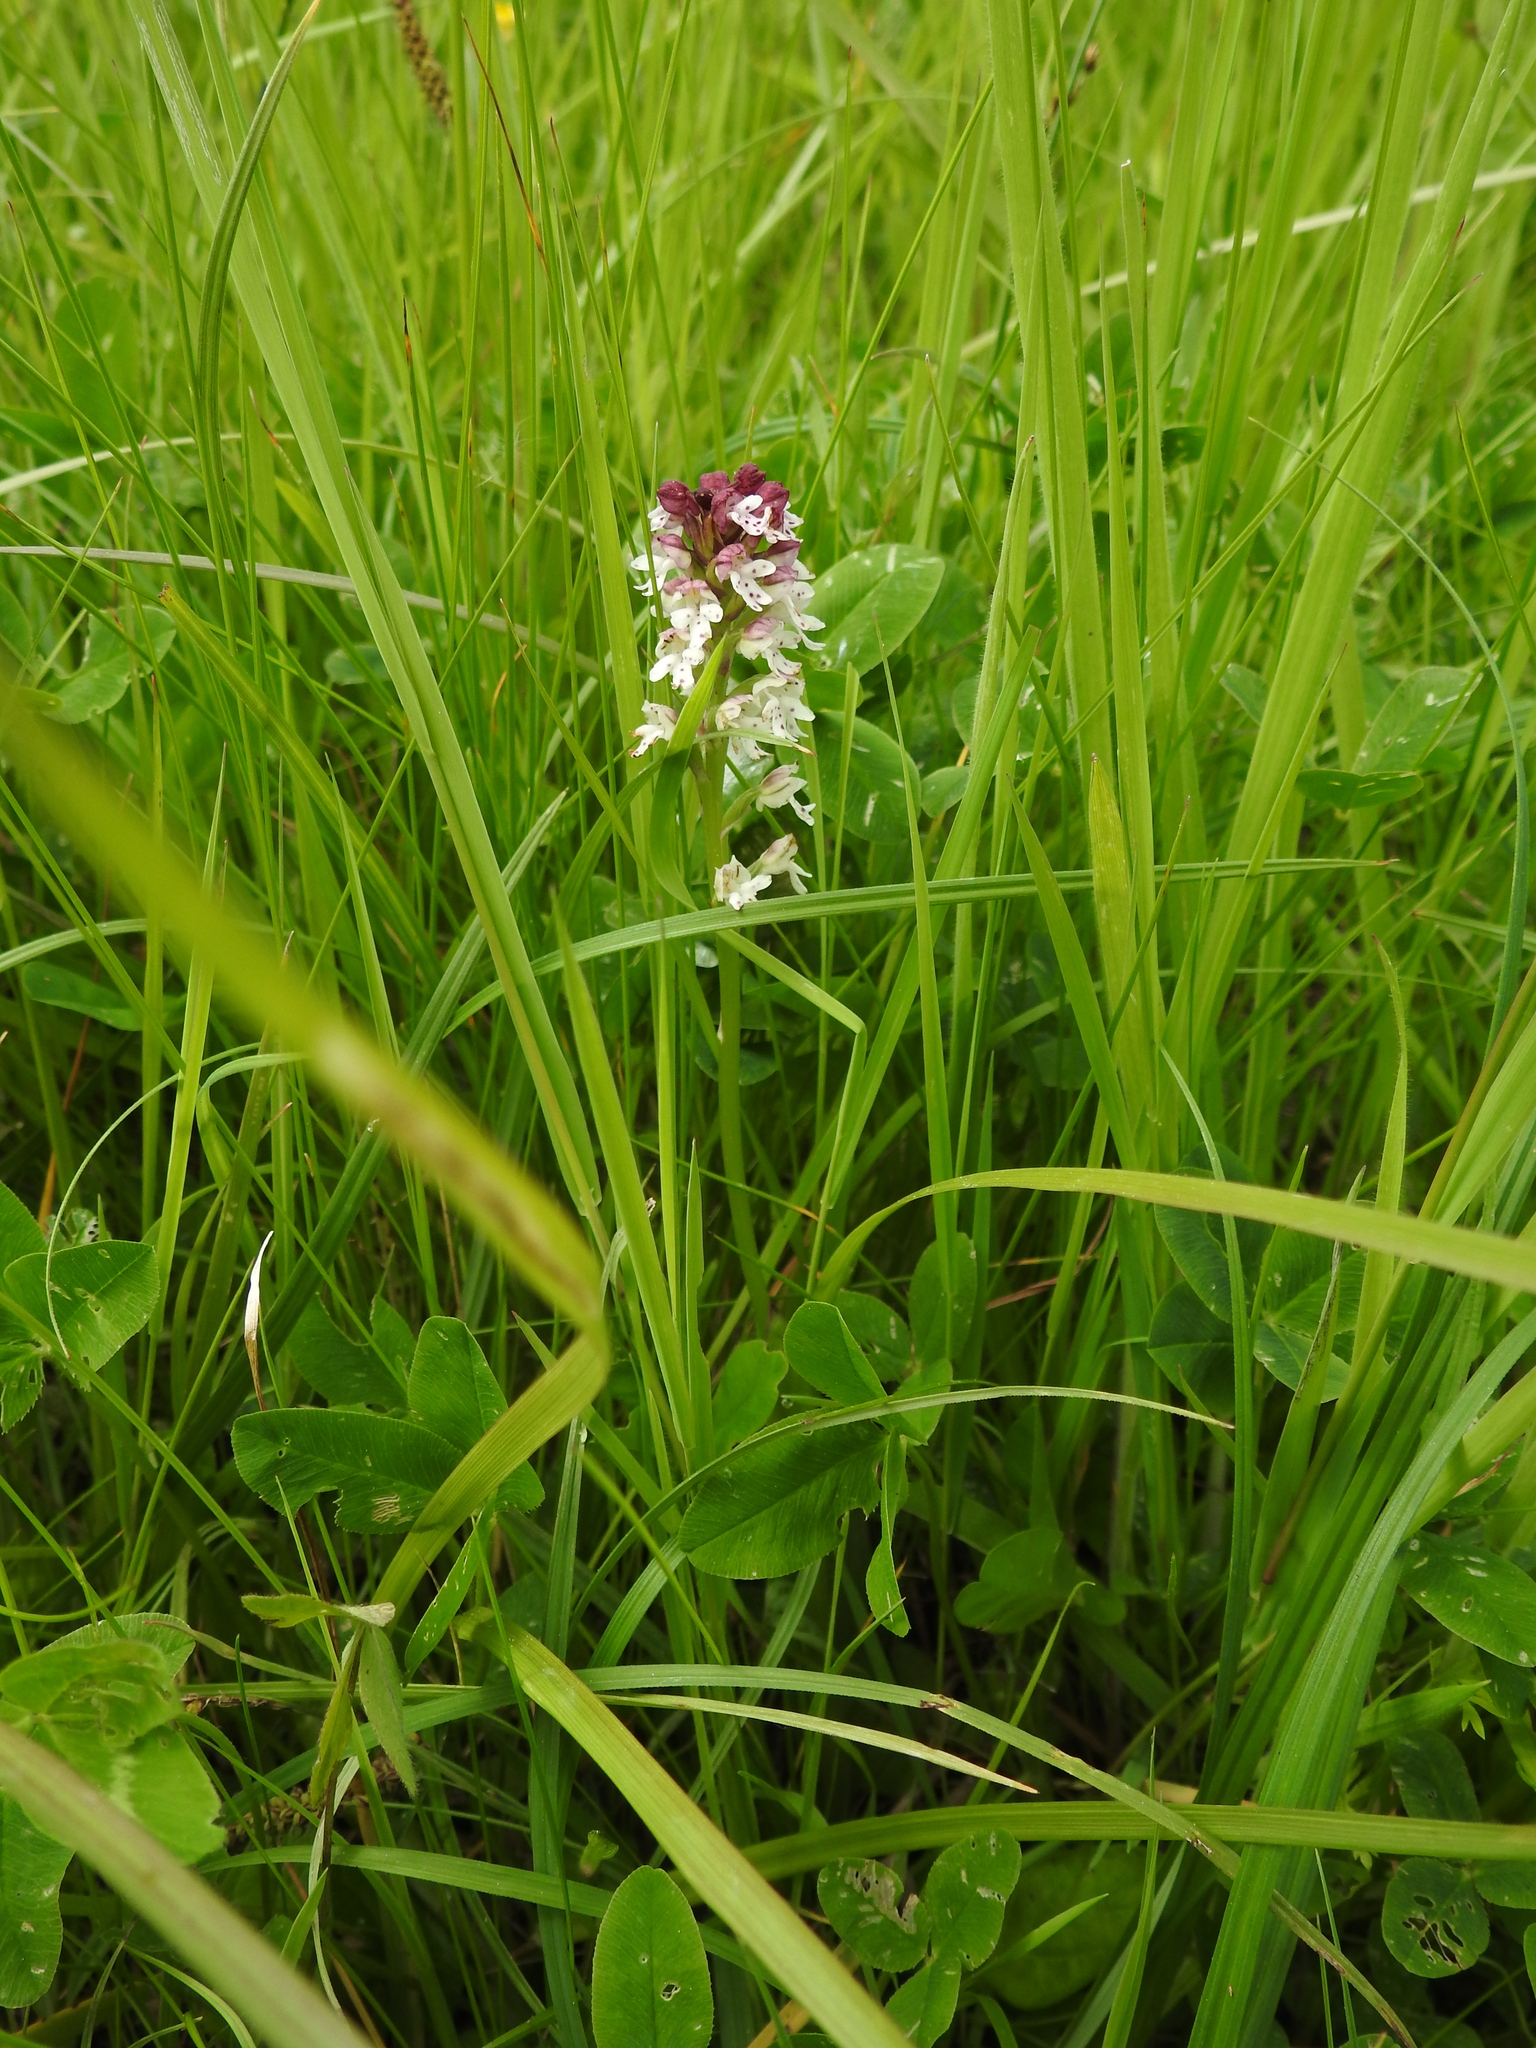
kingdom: Plantae
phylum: Tracheophyta
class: Liliopsida
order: Asparagales
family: Orchidaceae
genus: Neotinea
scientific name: Neotinea ustulata
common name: Burnt orchid
